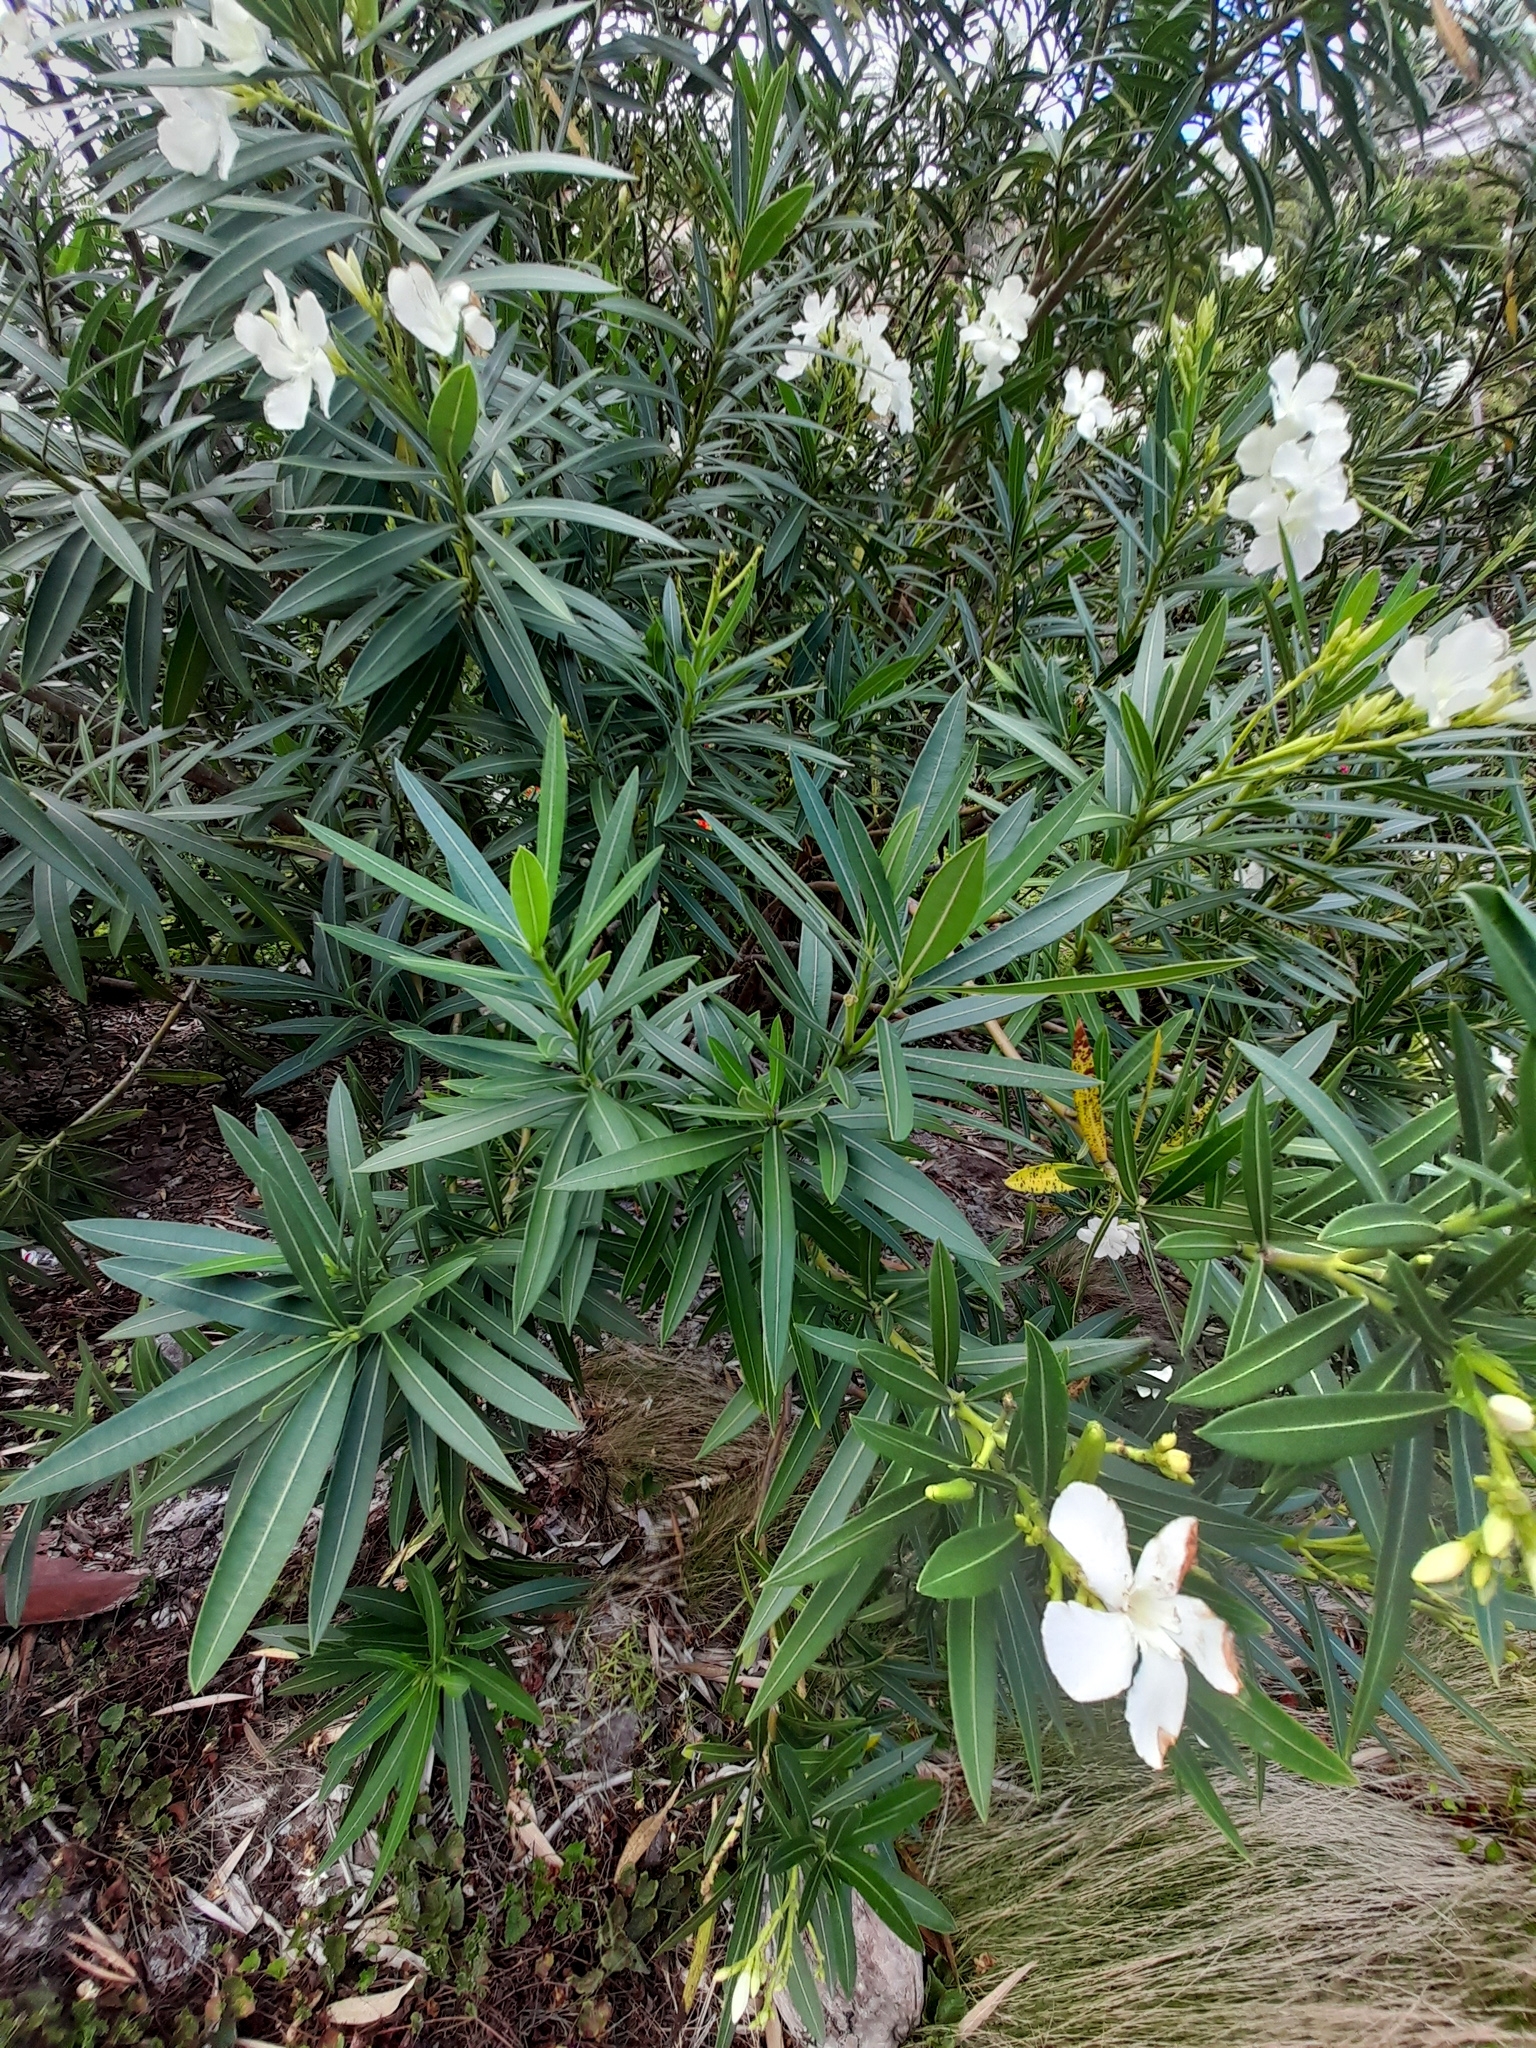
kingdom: Plantae
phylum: Tracheophyta
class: Magnoliopsida
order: Gentianales
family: Apocynaceae
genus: Nerium
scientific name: Nerium oleander
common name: Oleander
